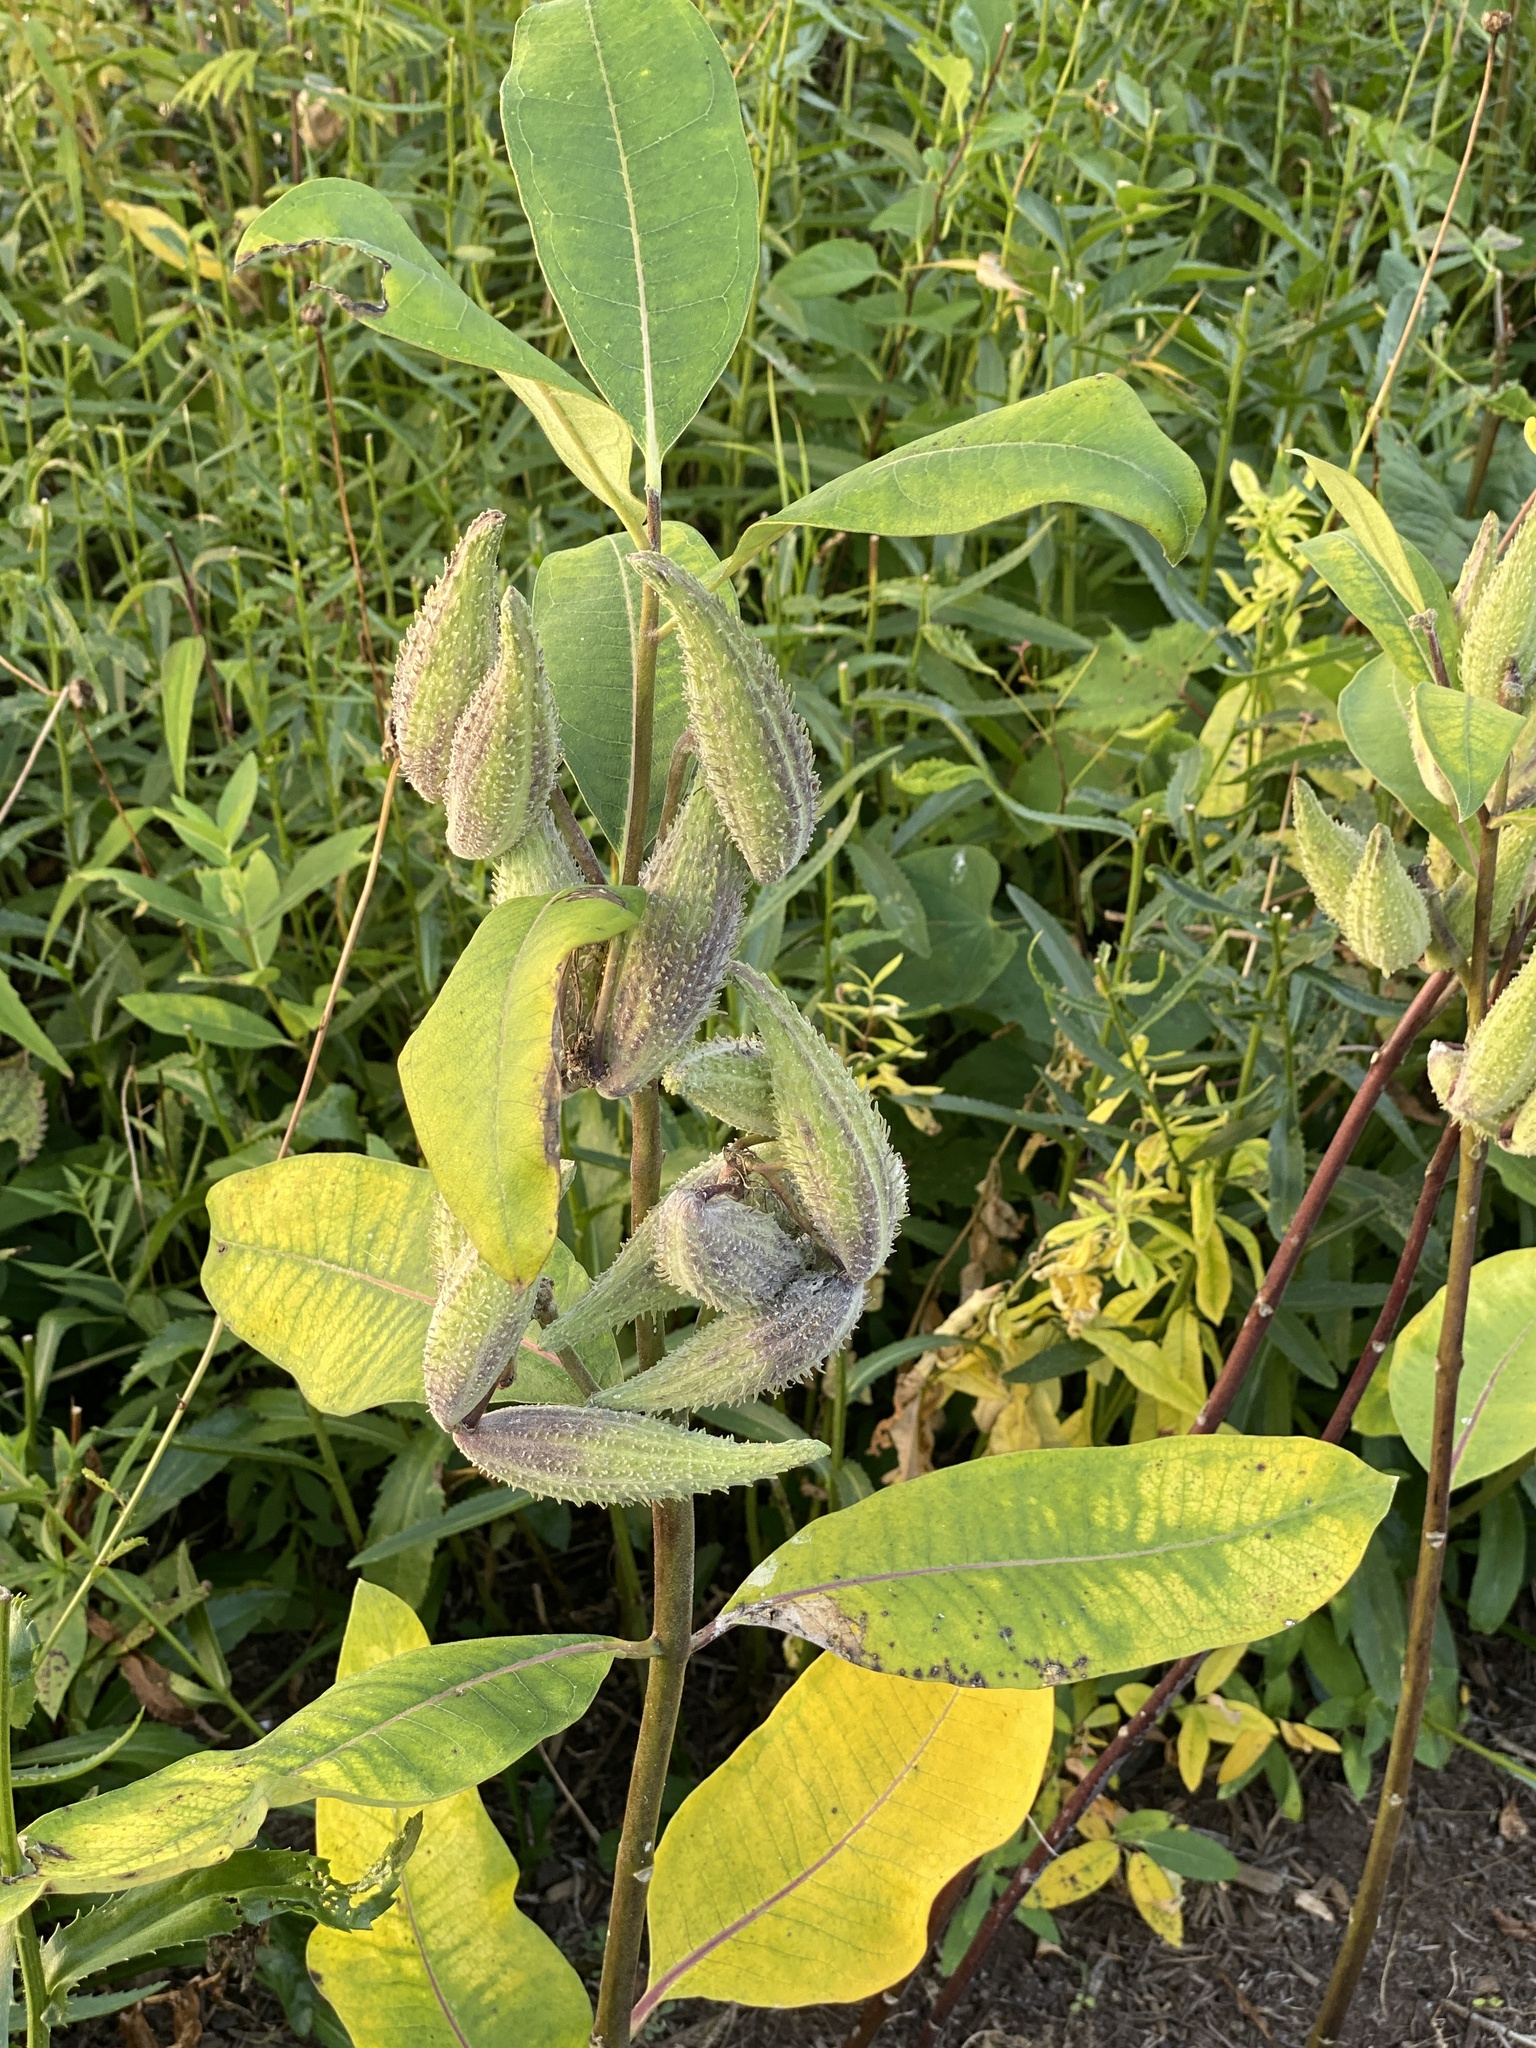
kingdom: Plantae
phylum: Tracheophyta
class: Magnoliopsida
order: Gentianales
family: Apocynaceae
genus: Asclepias
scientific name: Asclepias syriaca
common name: Common milkweed
